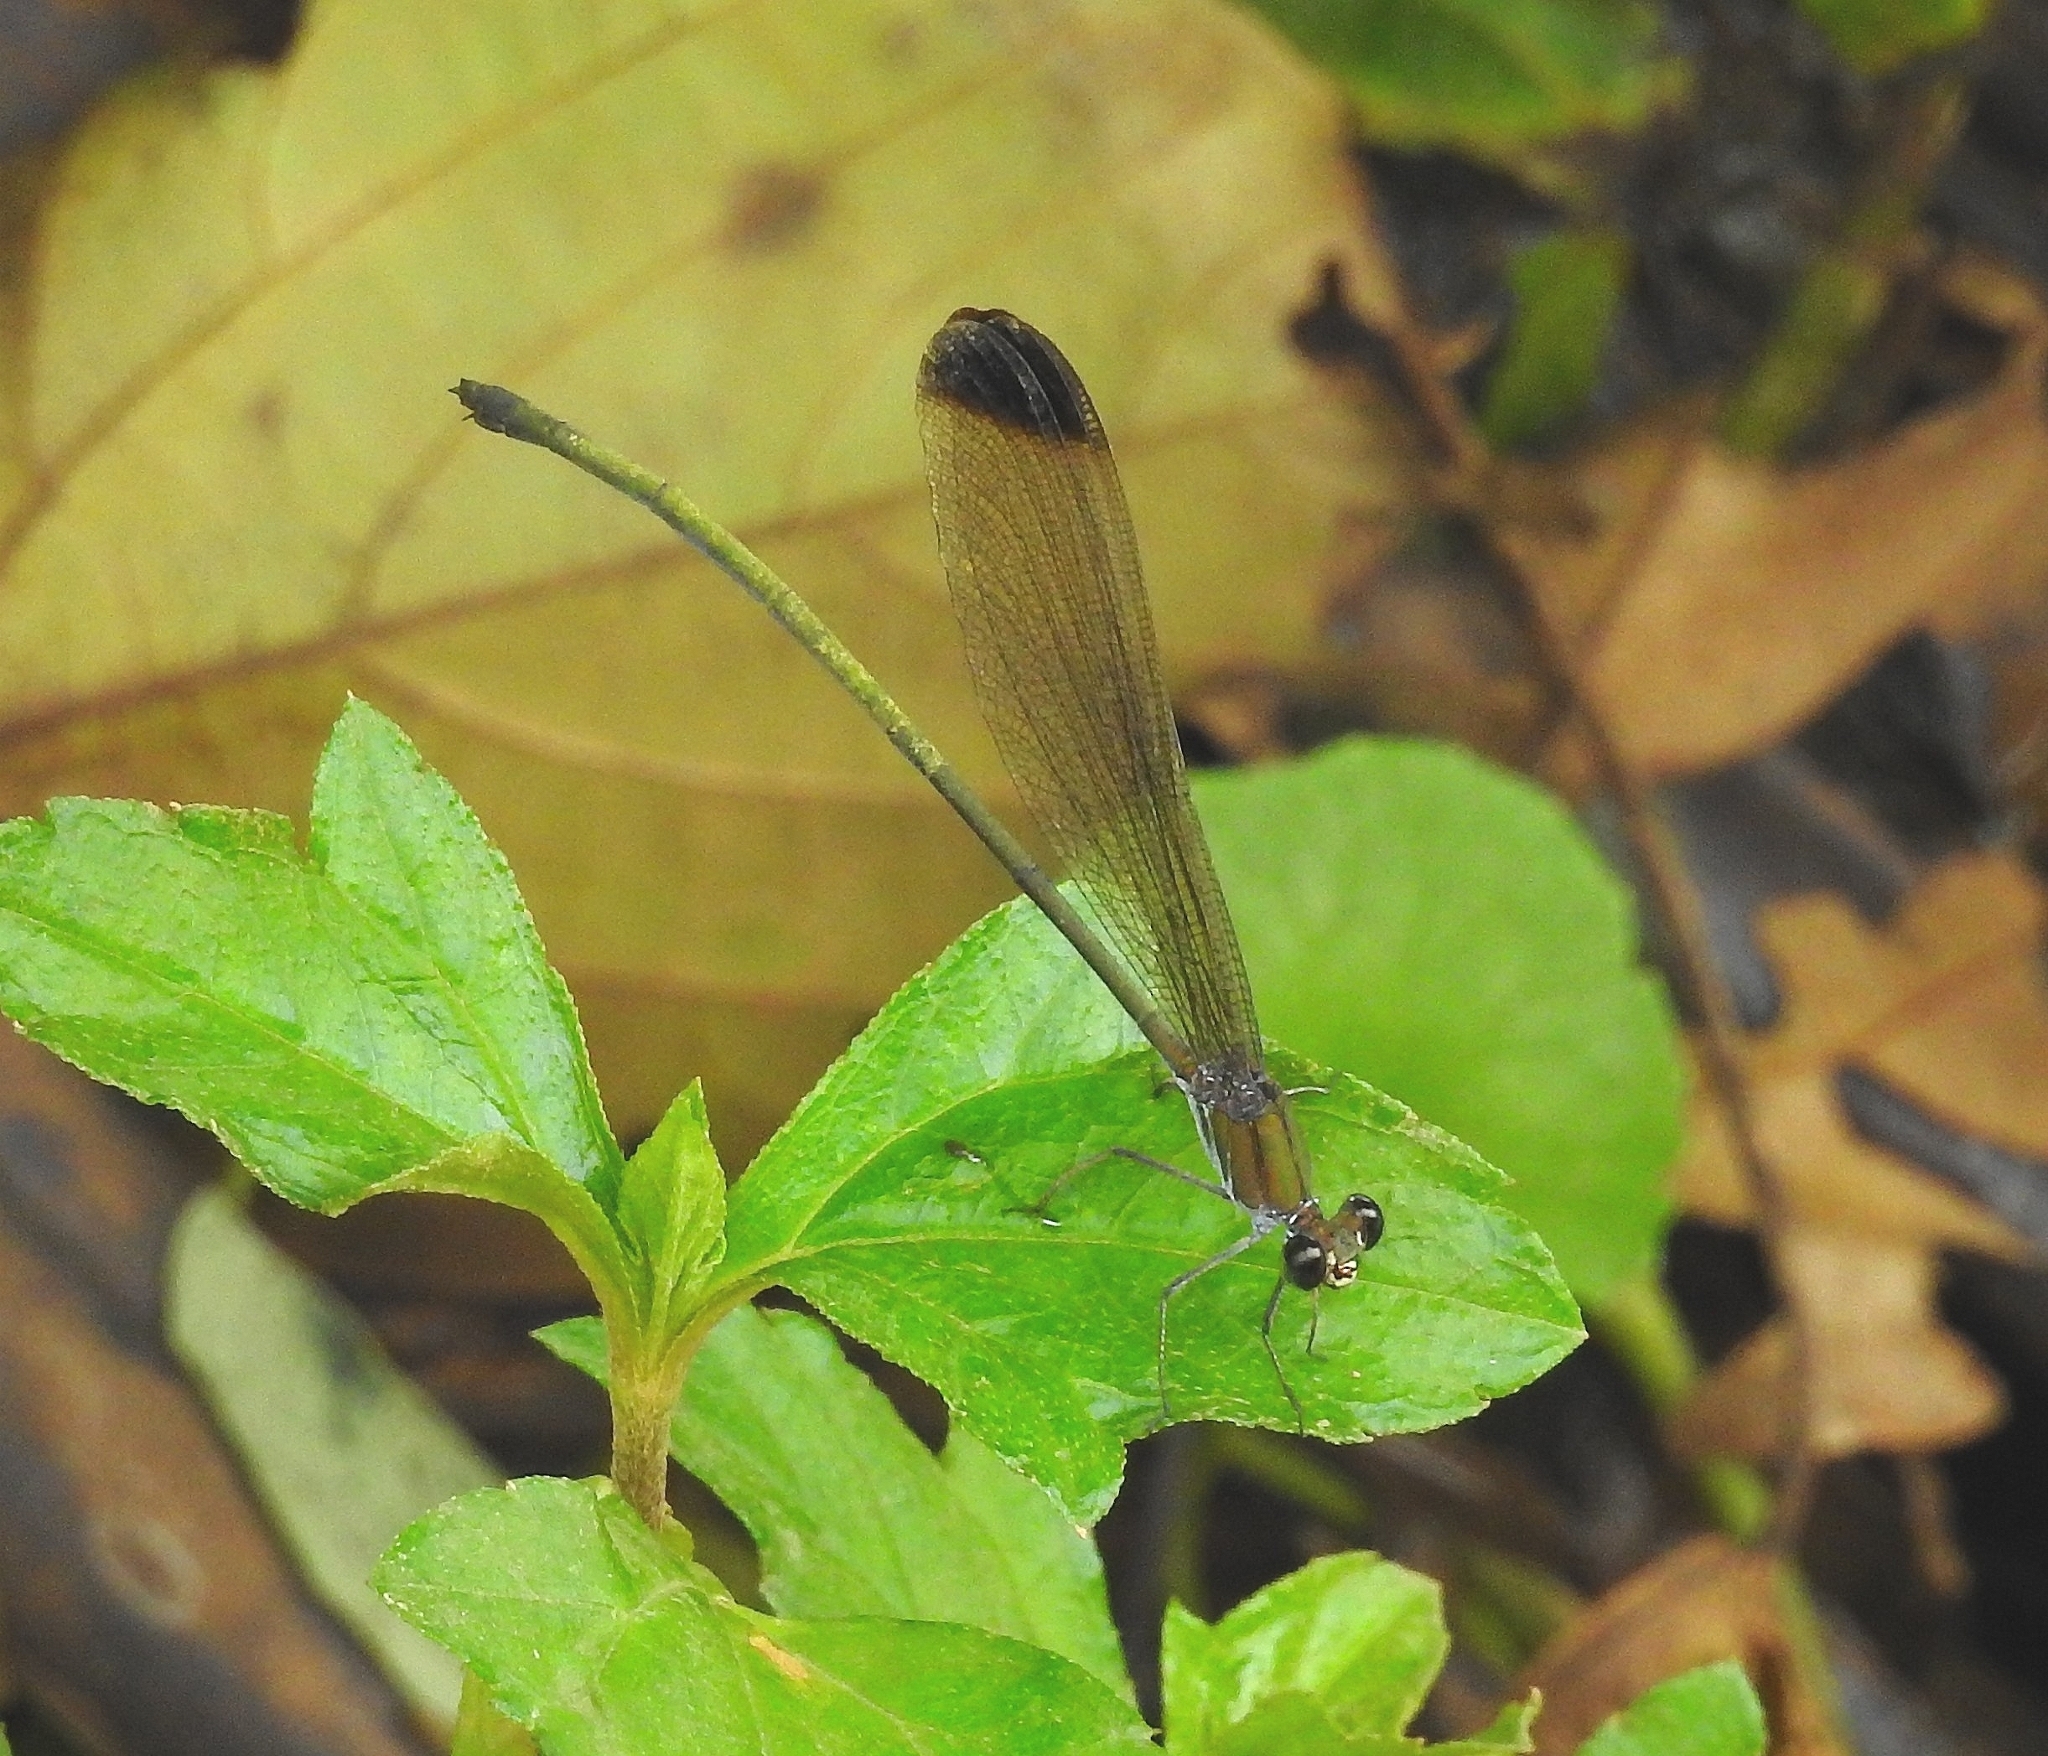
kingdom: Animalia
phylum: Arthropoda
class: Insecta
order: Odonata
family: Calopterygidae
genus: Vestalis
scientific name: Vestalis apicalis
